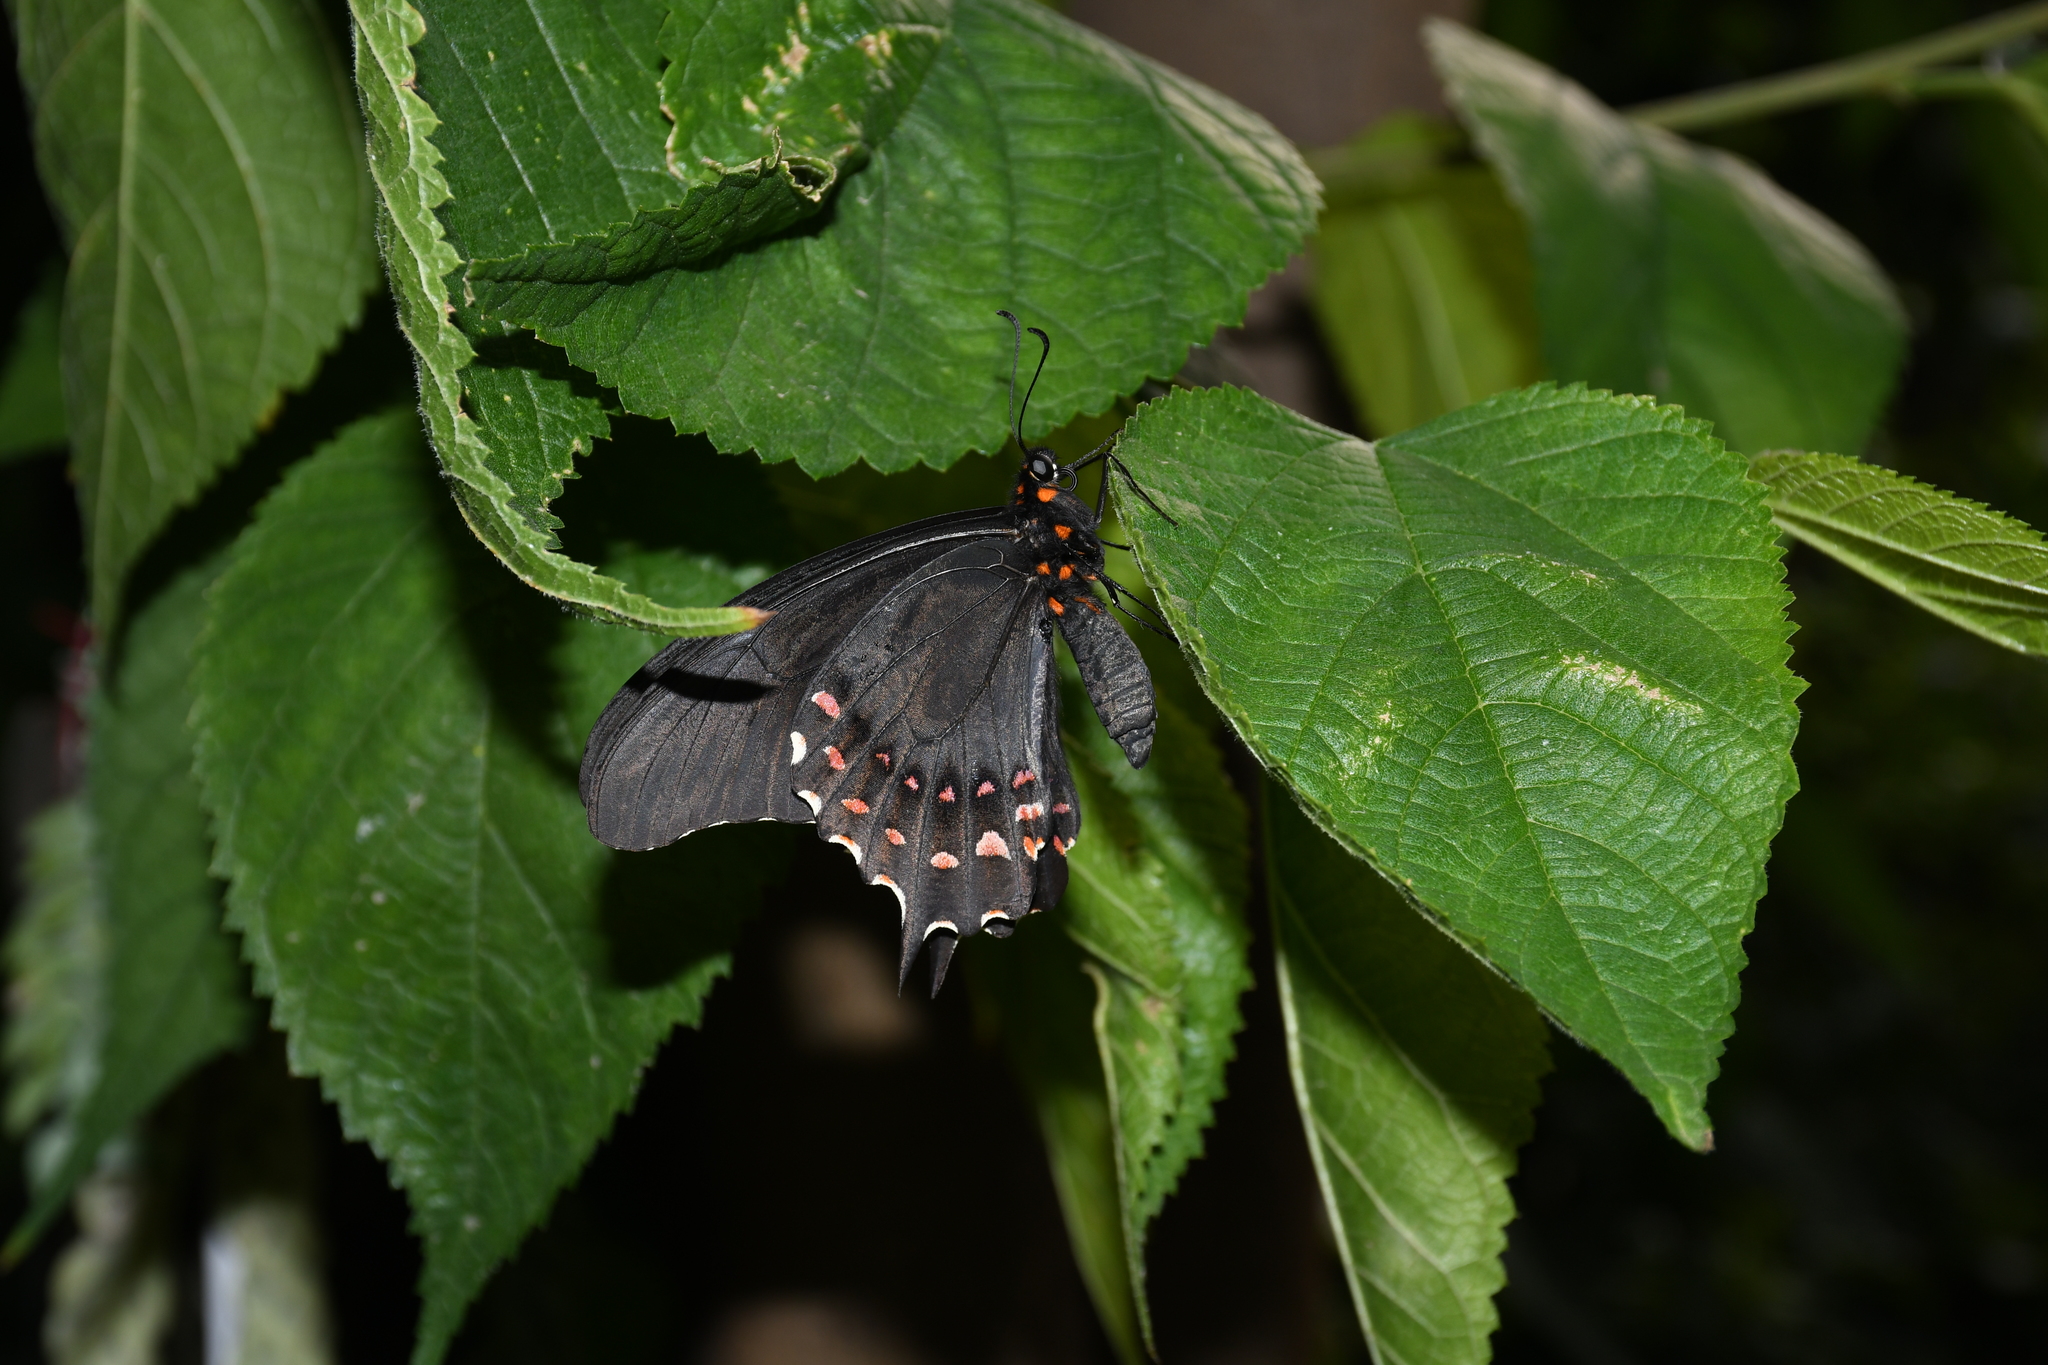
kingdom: Animalia
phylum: Arthropoda
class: Insecta
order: Lepidoptera
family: Papilionidae
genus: Heraclides
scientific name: Heraclides rogeri
